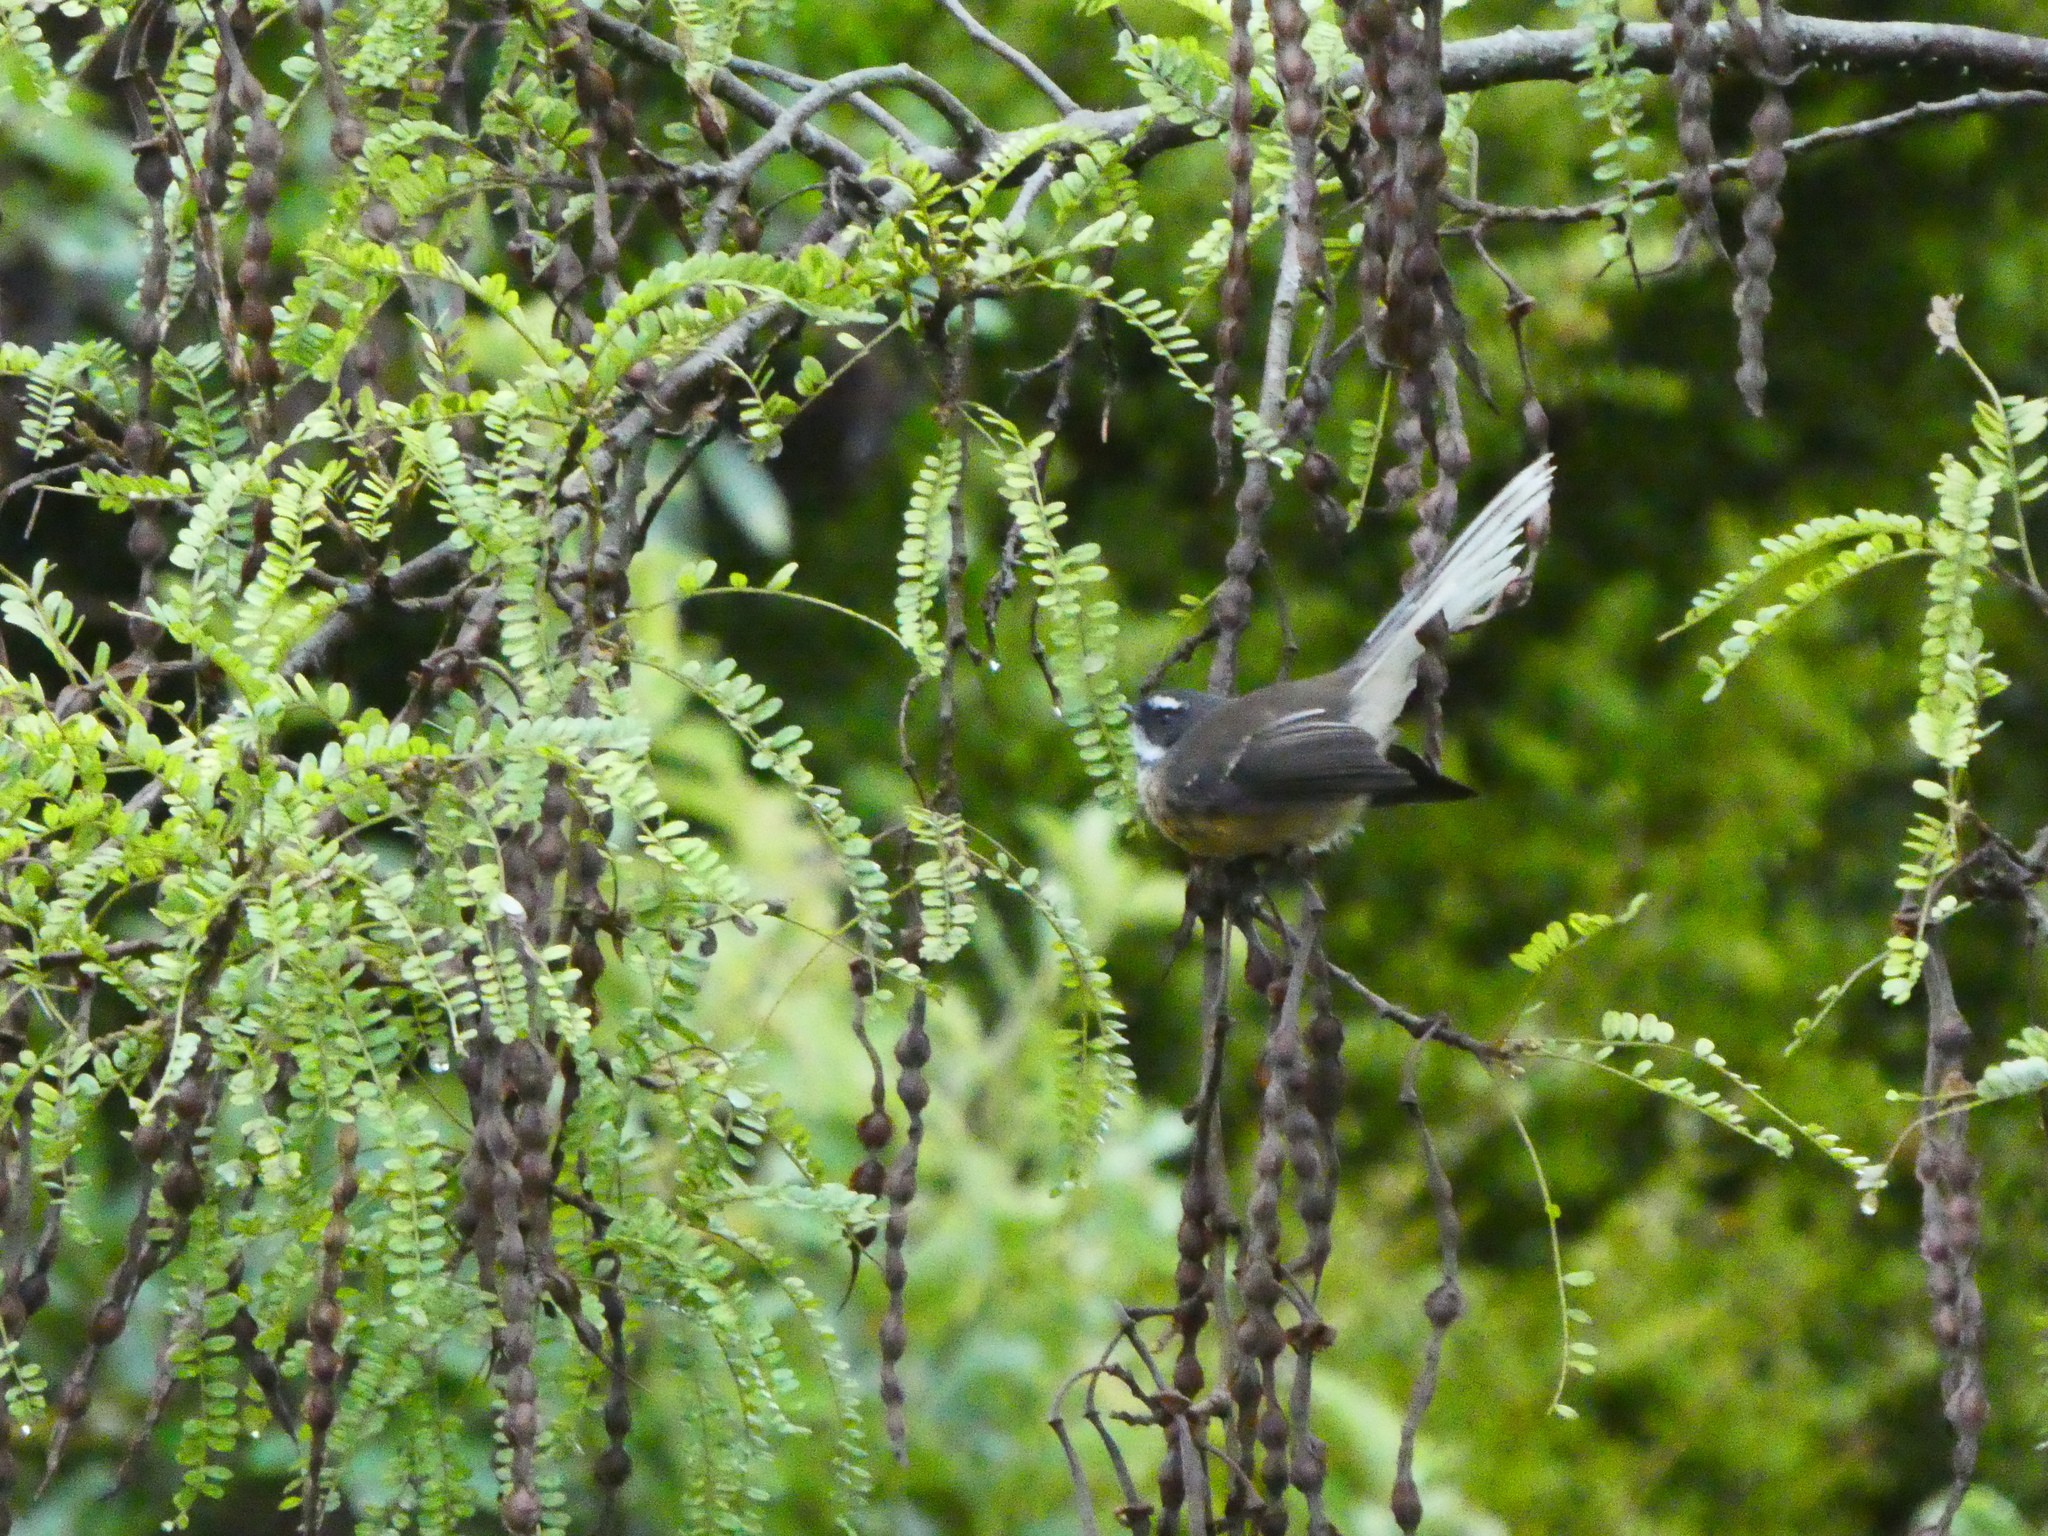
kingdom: Animalia
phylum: Chordata
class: Aves
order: Passeriformes
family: Rhipiduridae
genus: Rhipidura
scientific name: Rhipidura fuliginosa
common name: New zealand fantail
